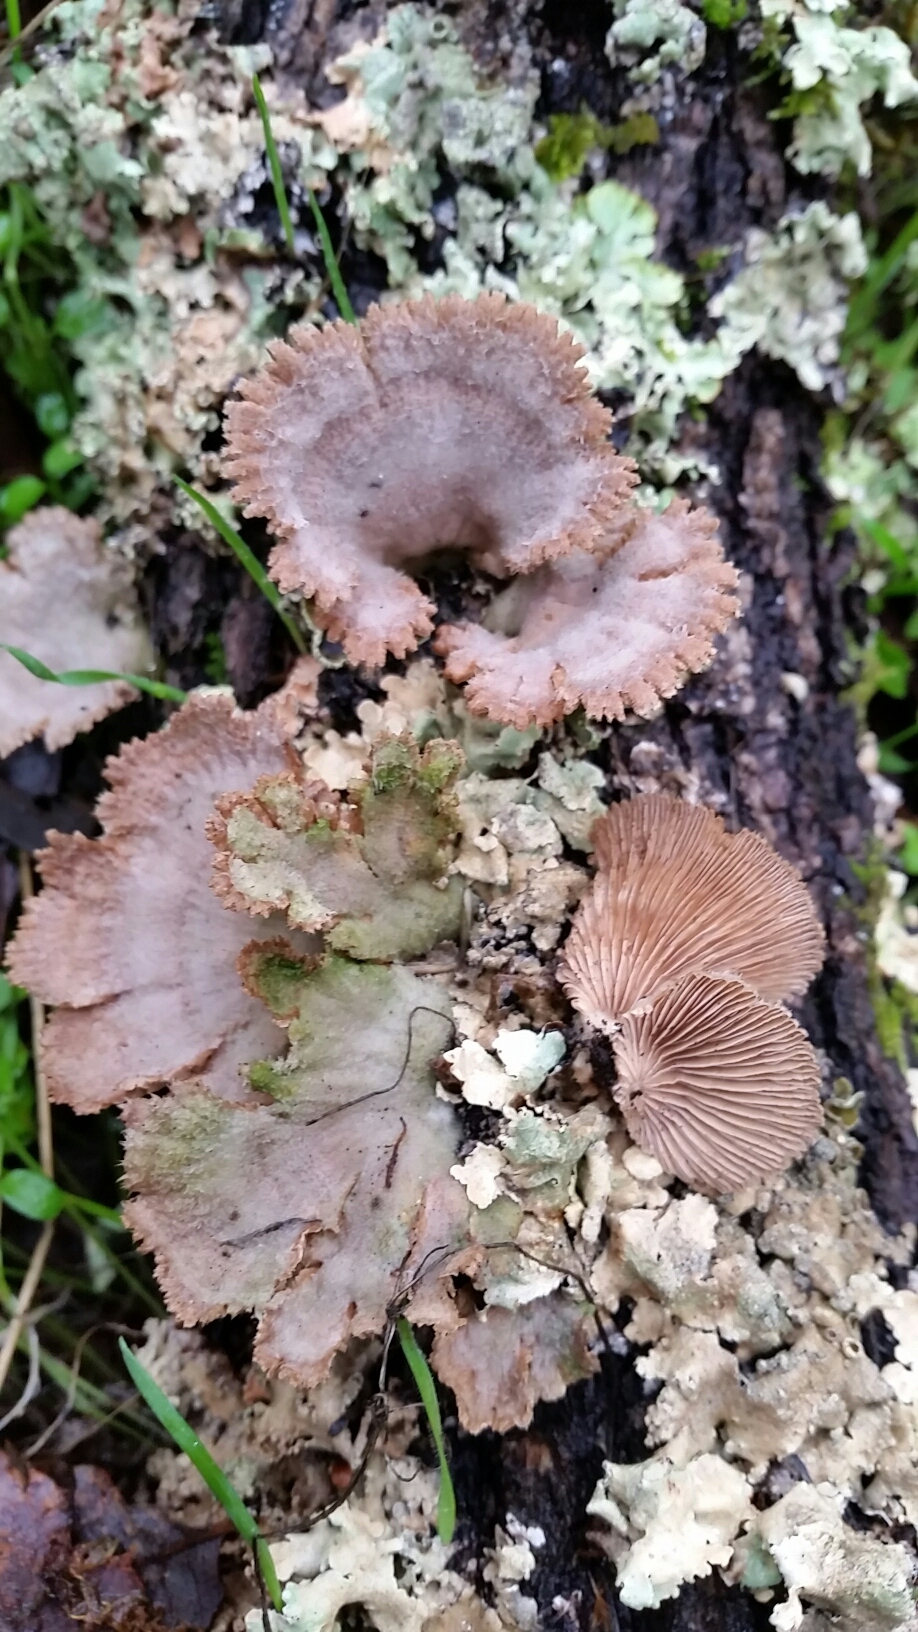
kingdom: Fungi
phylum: Basidiomycota
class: Agaricomycetes
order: Agaricales
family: Schizophyllaceae
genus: Schizophyllum
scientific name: Schizophyllum commune
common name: Common porecrust
